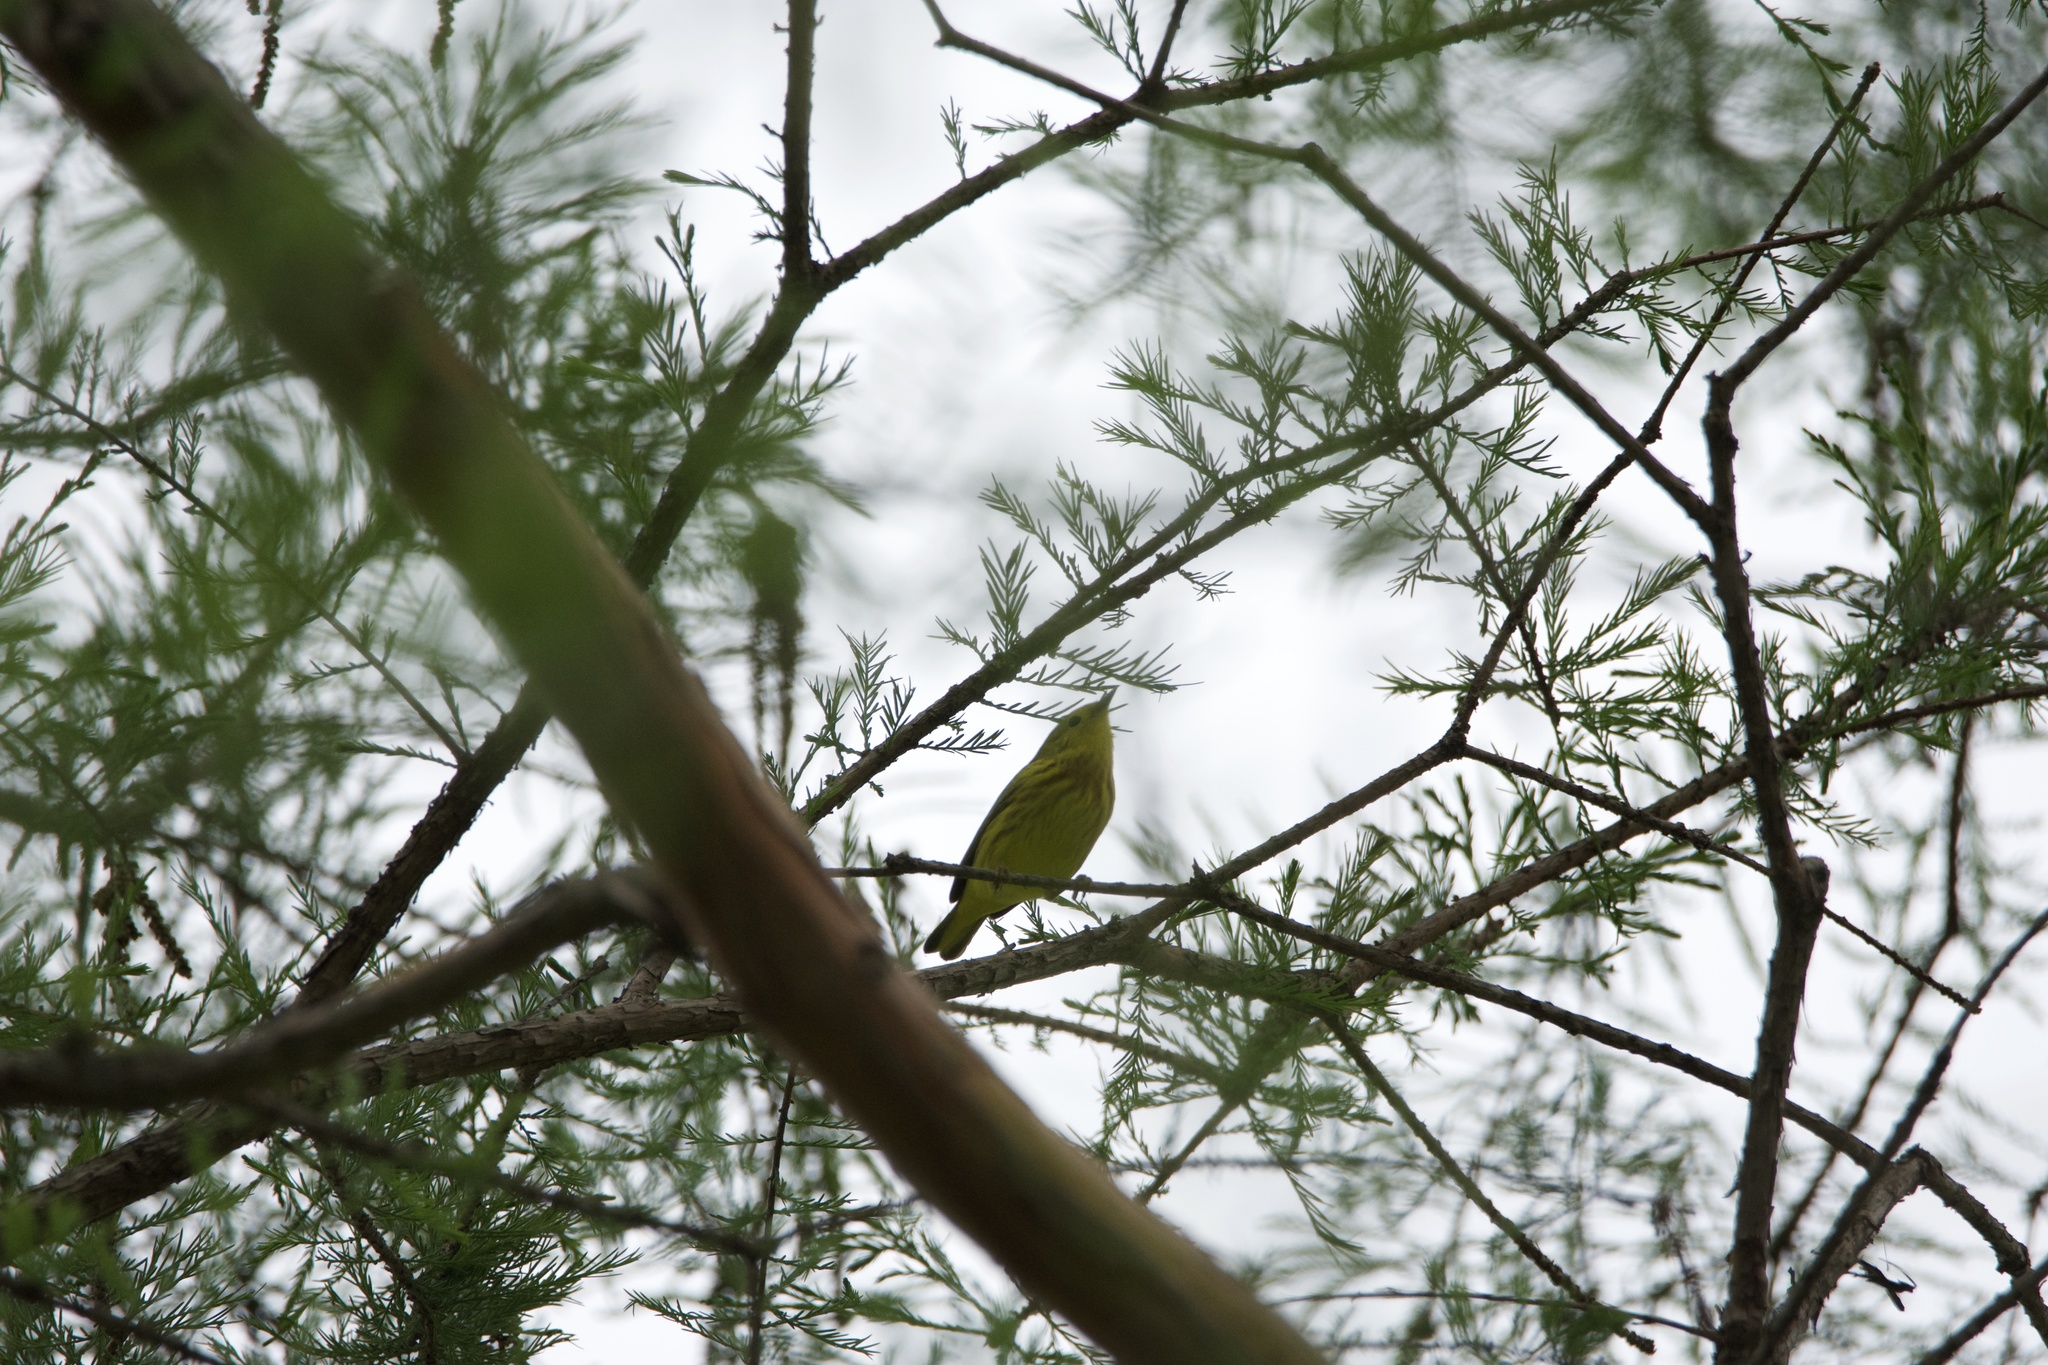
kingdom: Animalia
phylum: Chordata
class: Aves
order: Passeriformes
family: Parulidae
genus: Setophaga
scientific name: Setophaga petechia
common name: Yellow warbler
